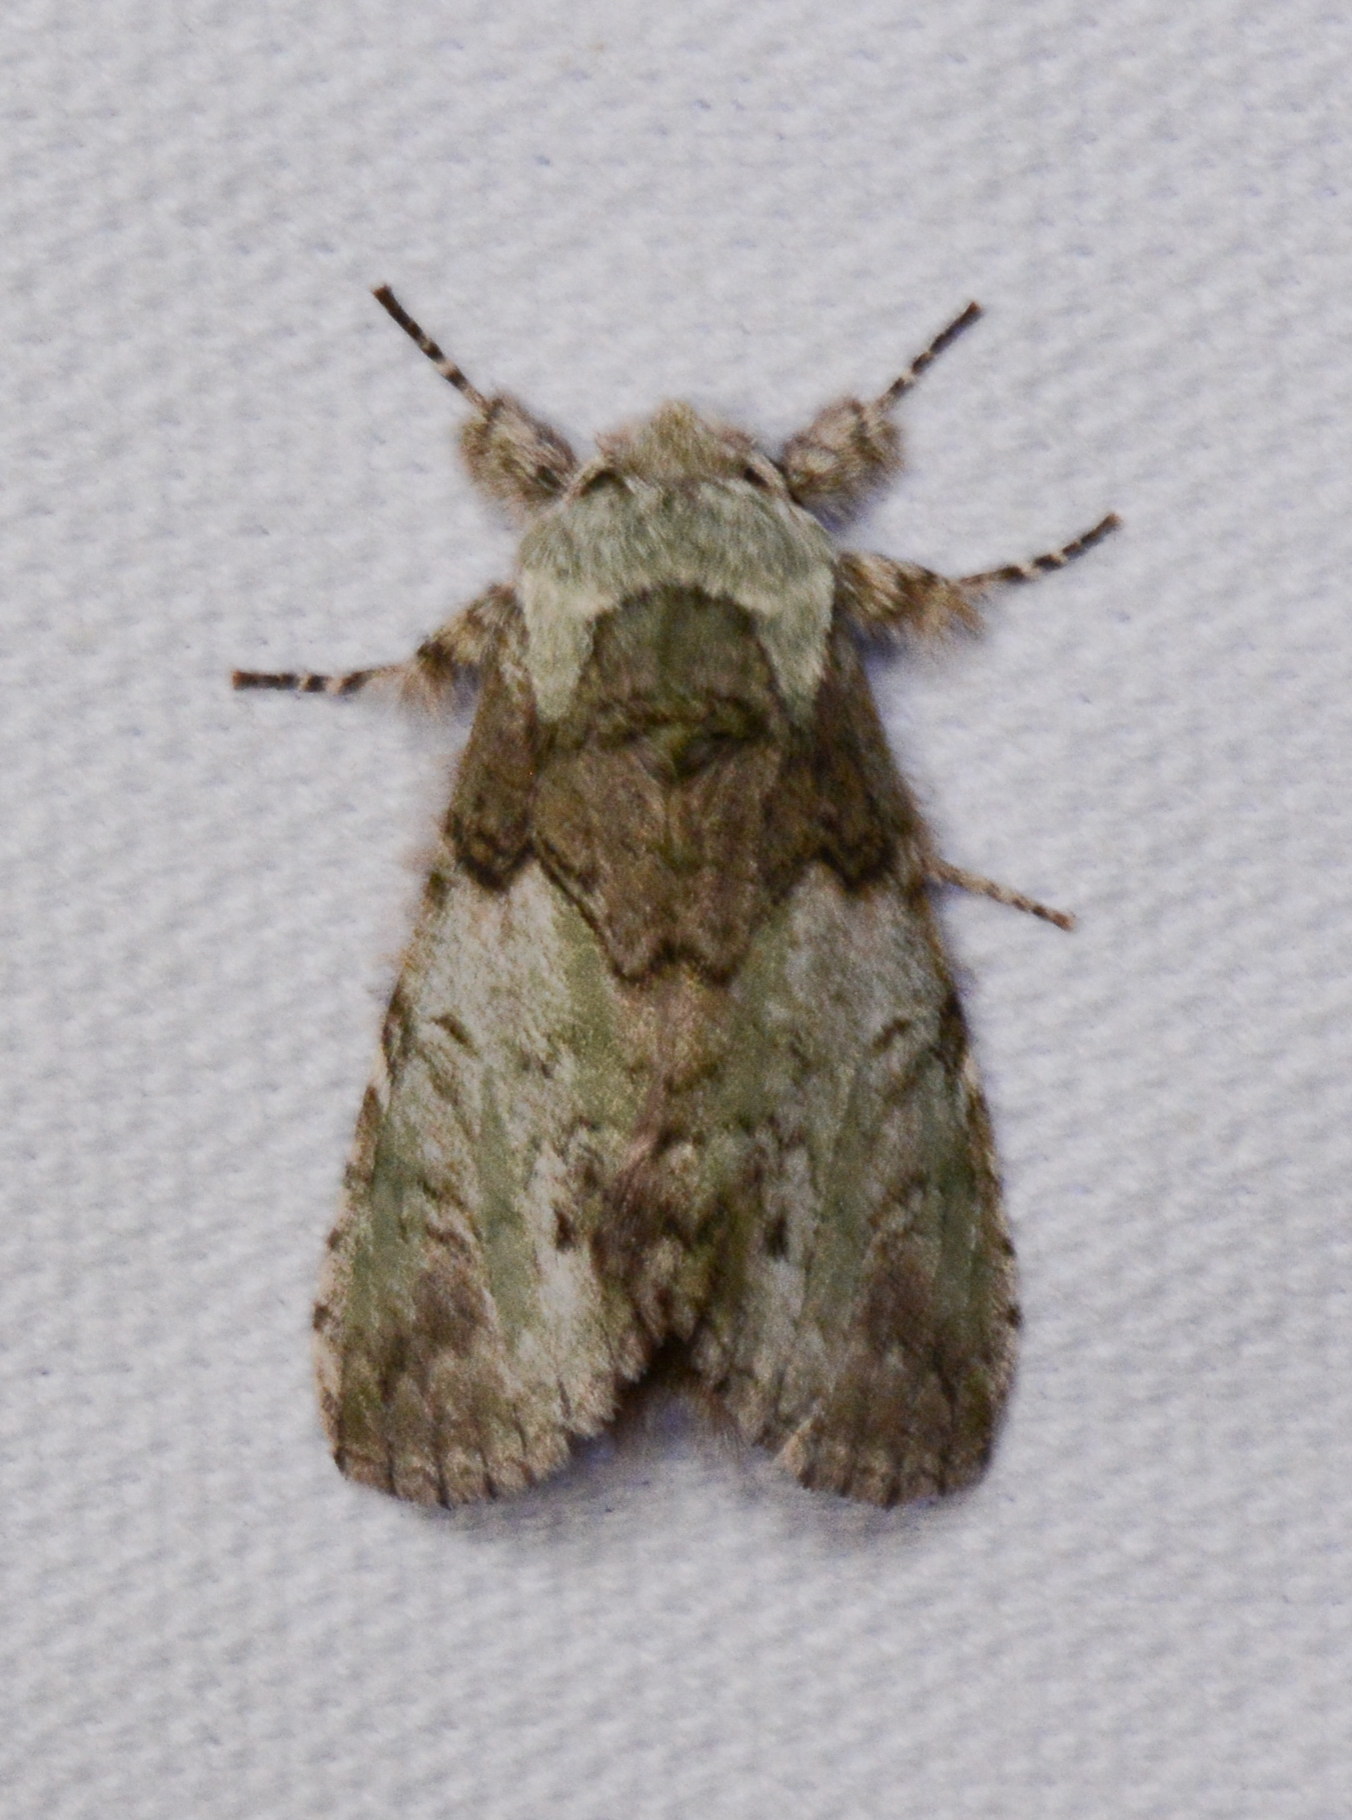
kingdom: Animalia
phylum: Arthropoda
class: Insecta
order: Lepidoptera
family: Notodontidae
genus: Macrurocampa
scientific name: Macrurocampa marthesia
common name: Mottled prominent
